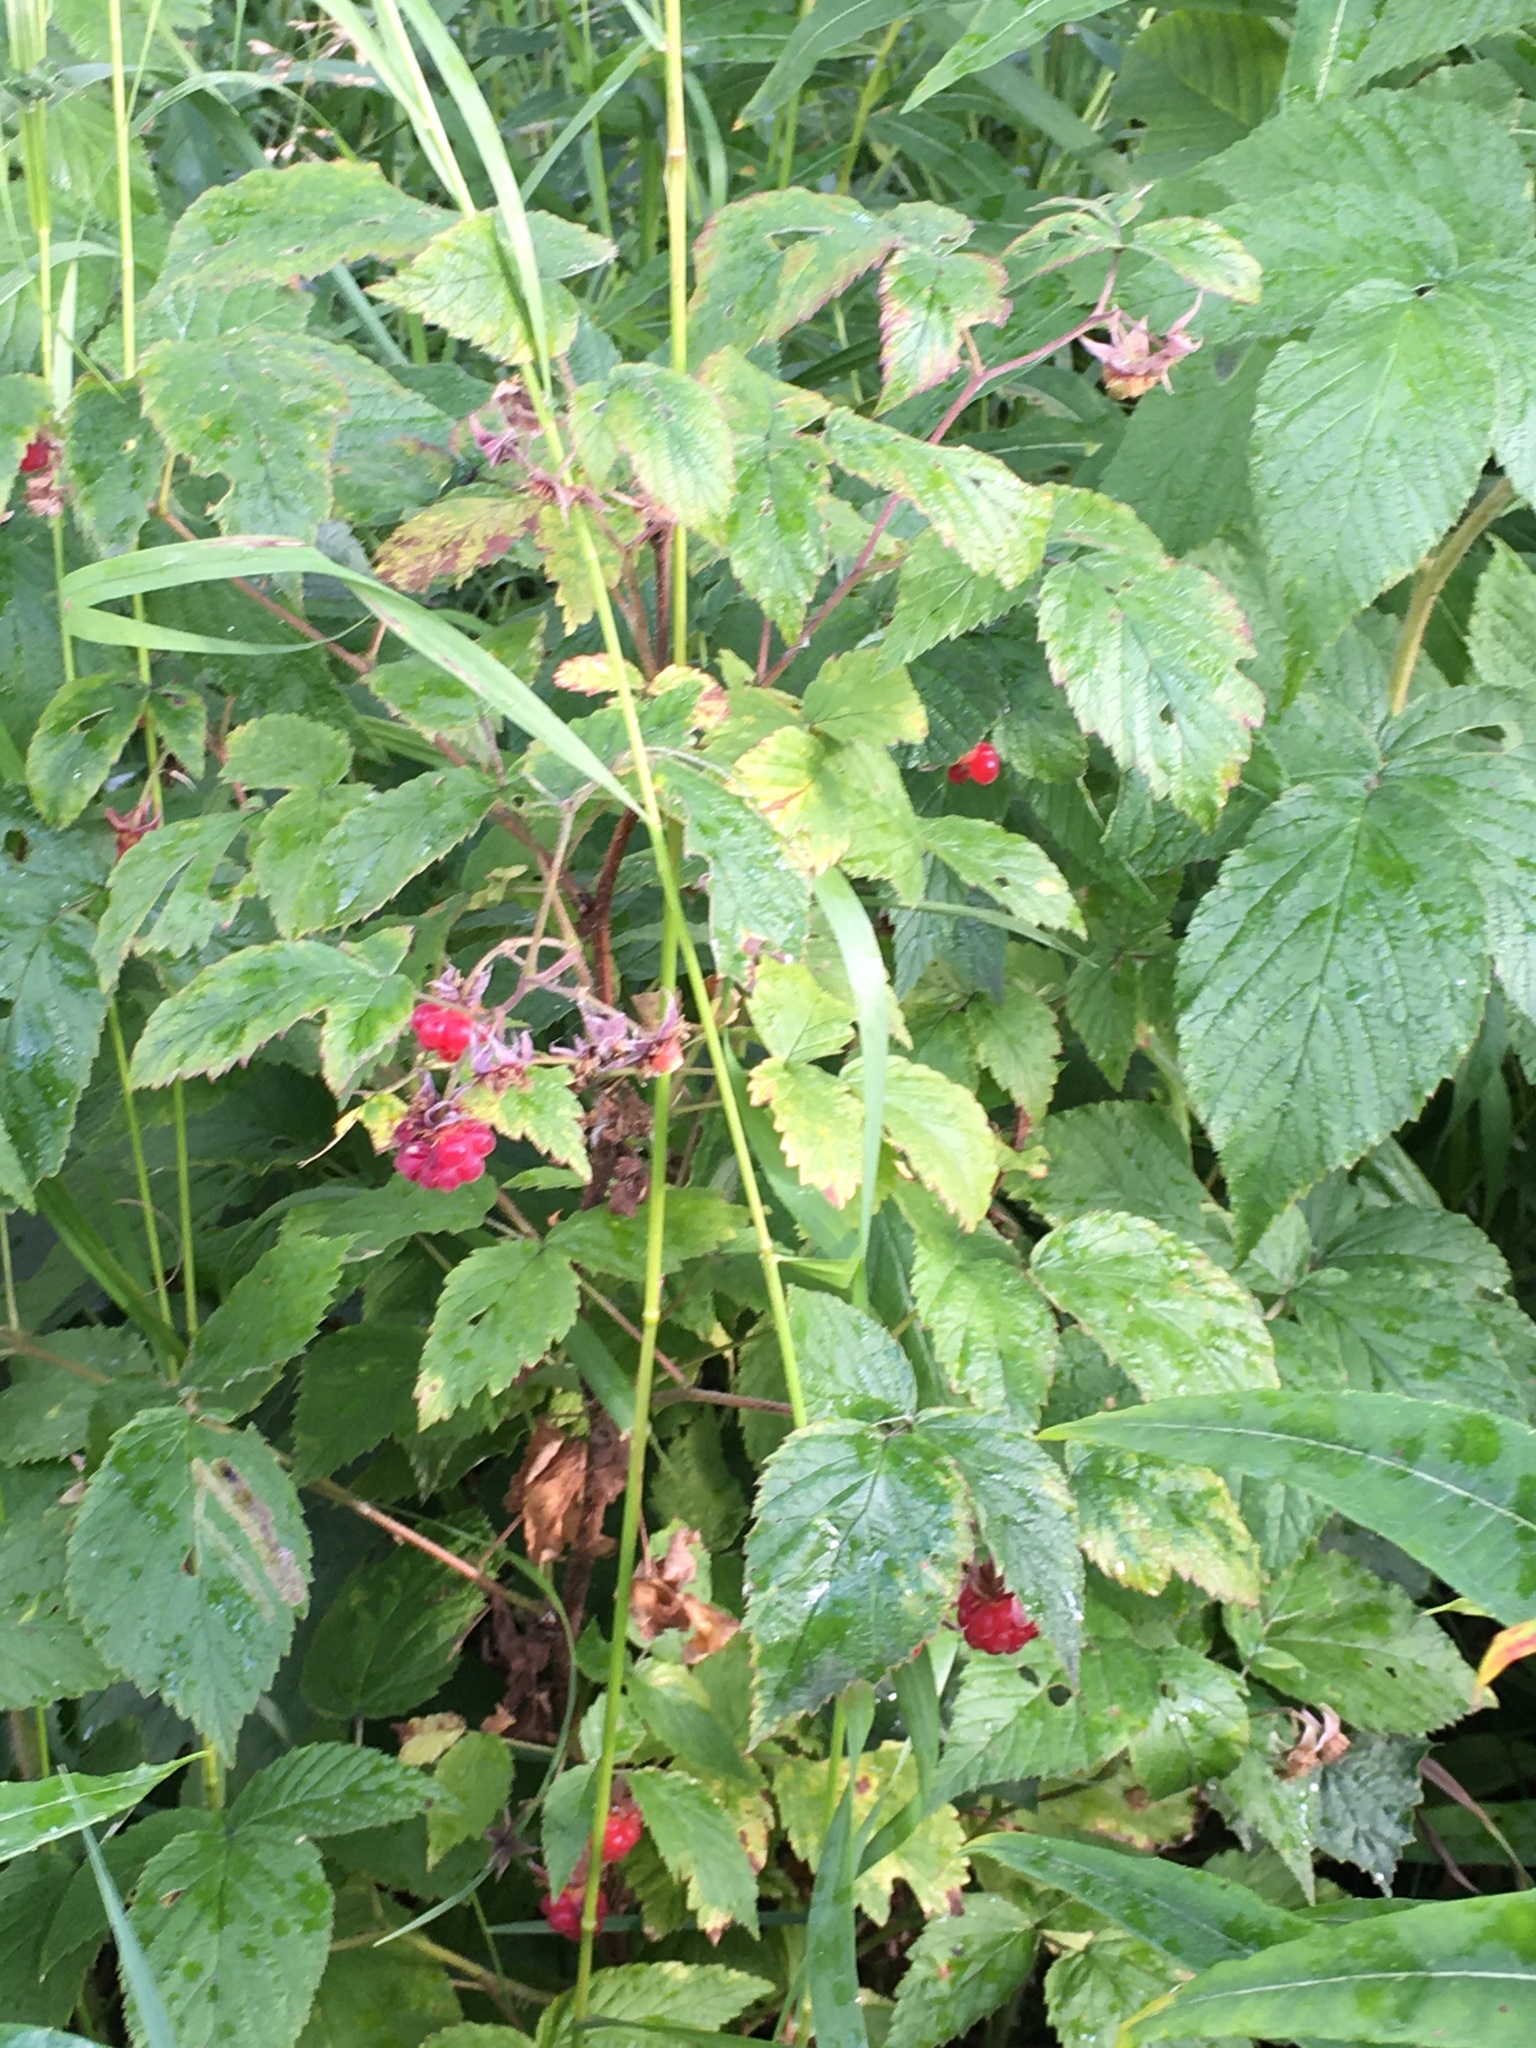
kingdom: Plantae
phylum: Tracheophyta
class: Magnoliopsida
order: Rosales
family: Rosaceae
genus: Rubus
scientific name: Rubus idaeus
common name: Raspberry
